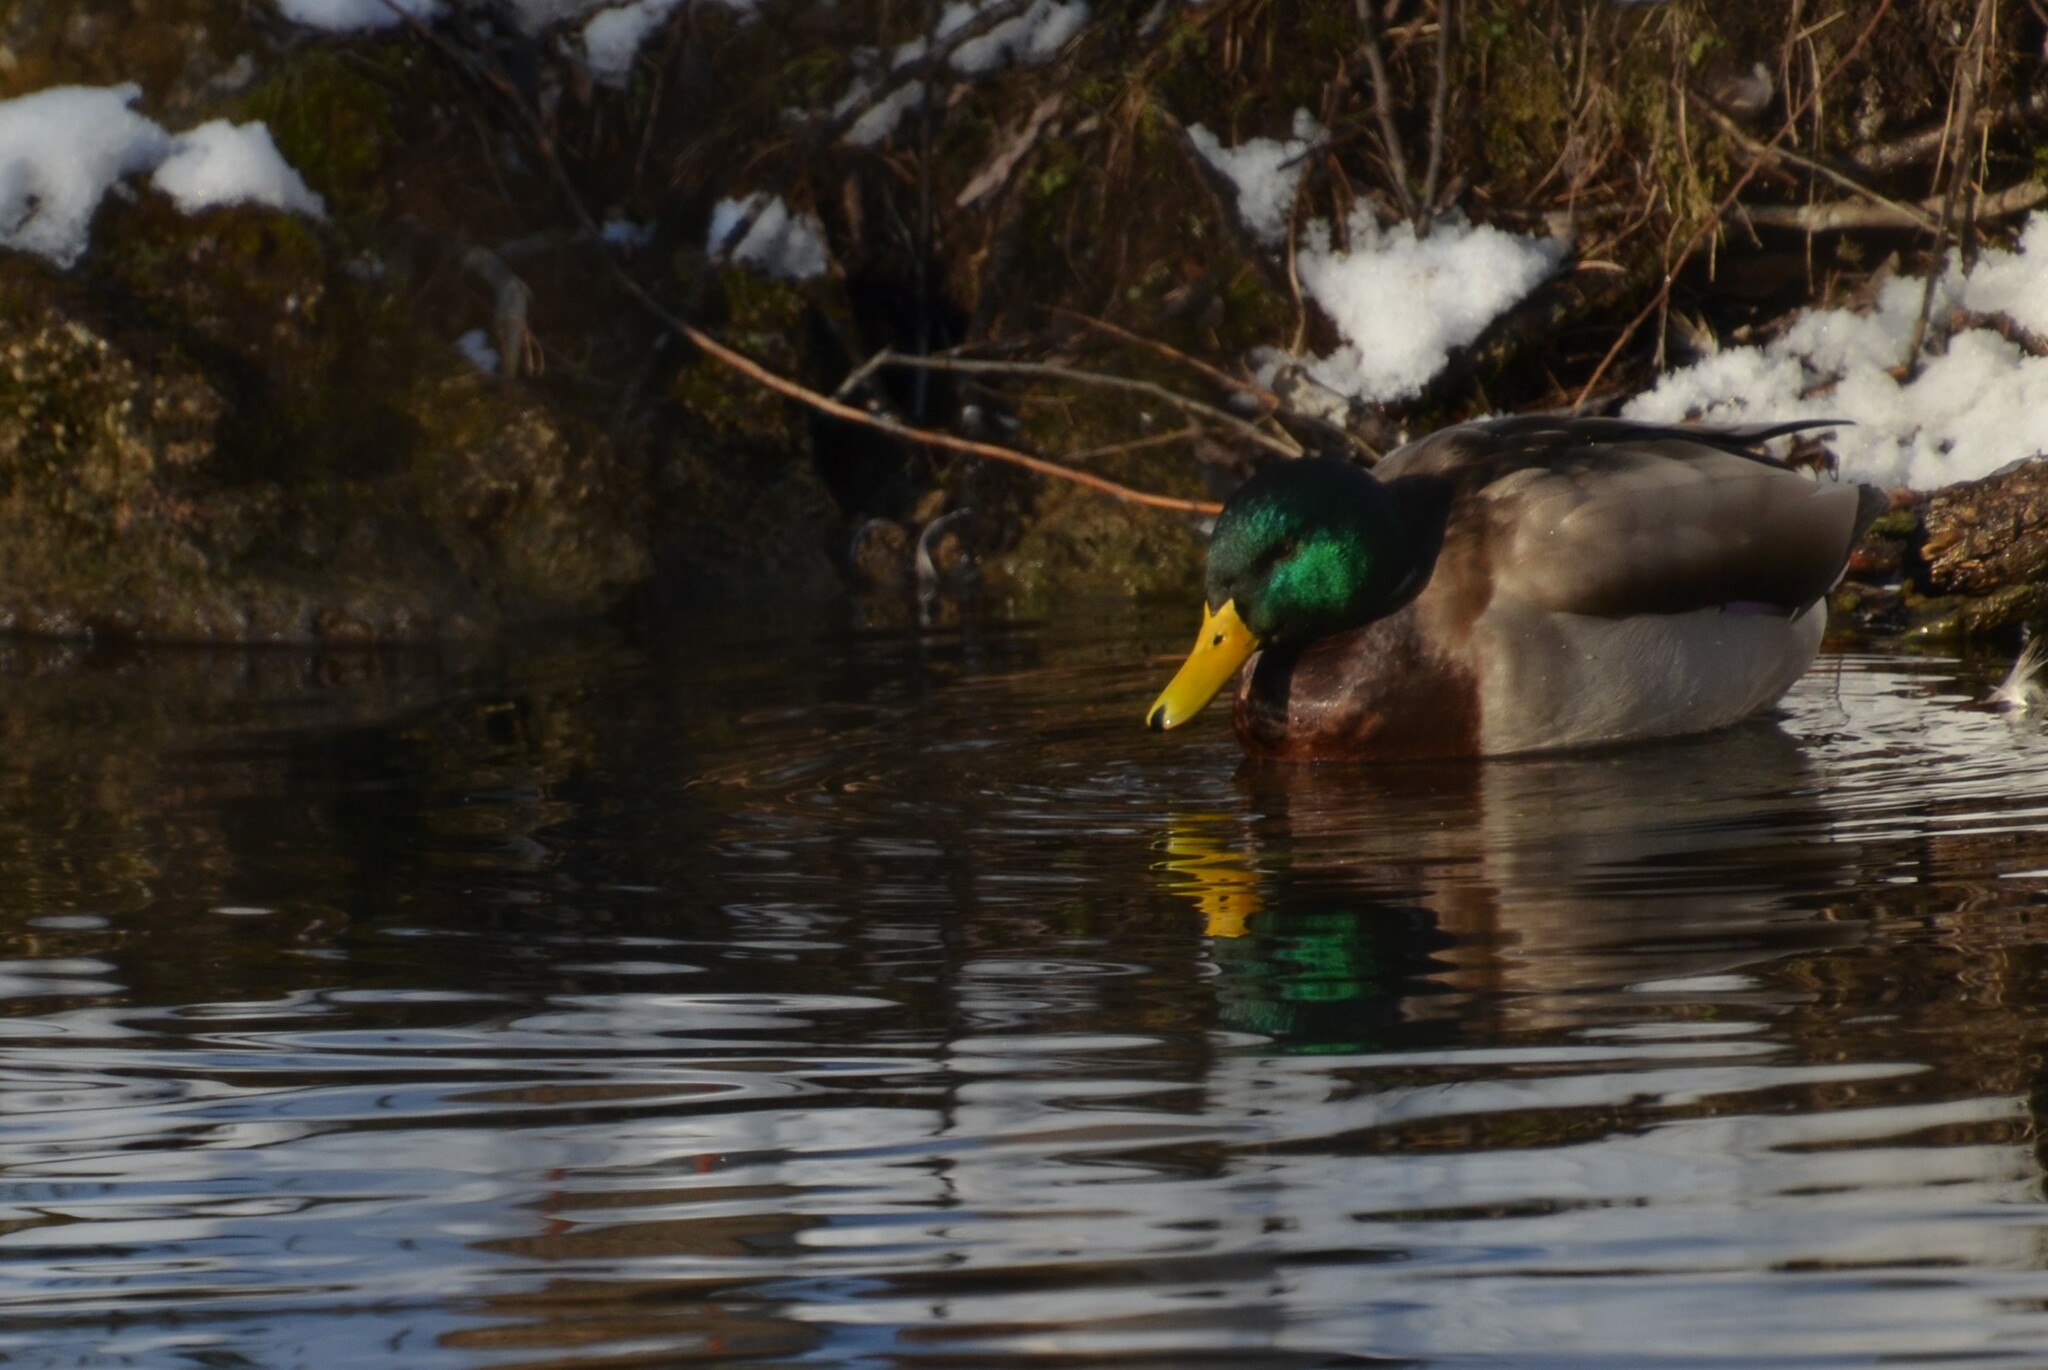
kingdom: Animalia
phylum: Chordata
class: Aves
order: Anseriformes
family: Anatidae
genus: Anas
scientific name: Anas platyrhynchos
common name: Mallard
